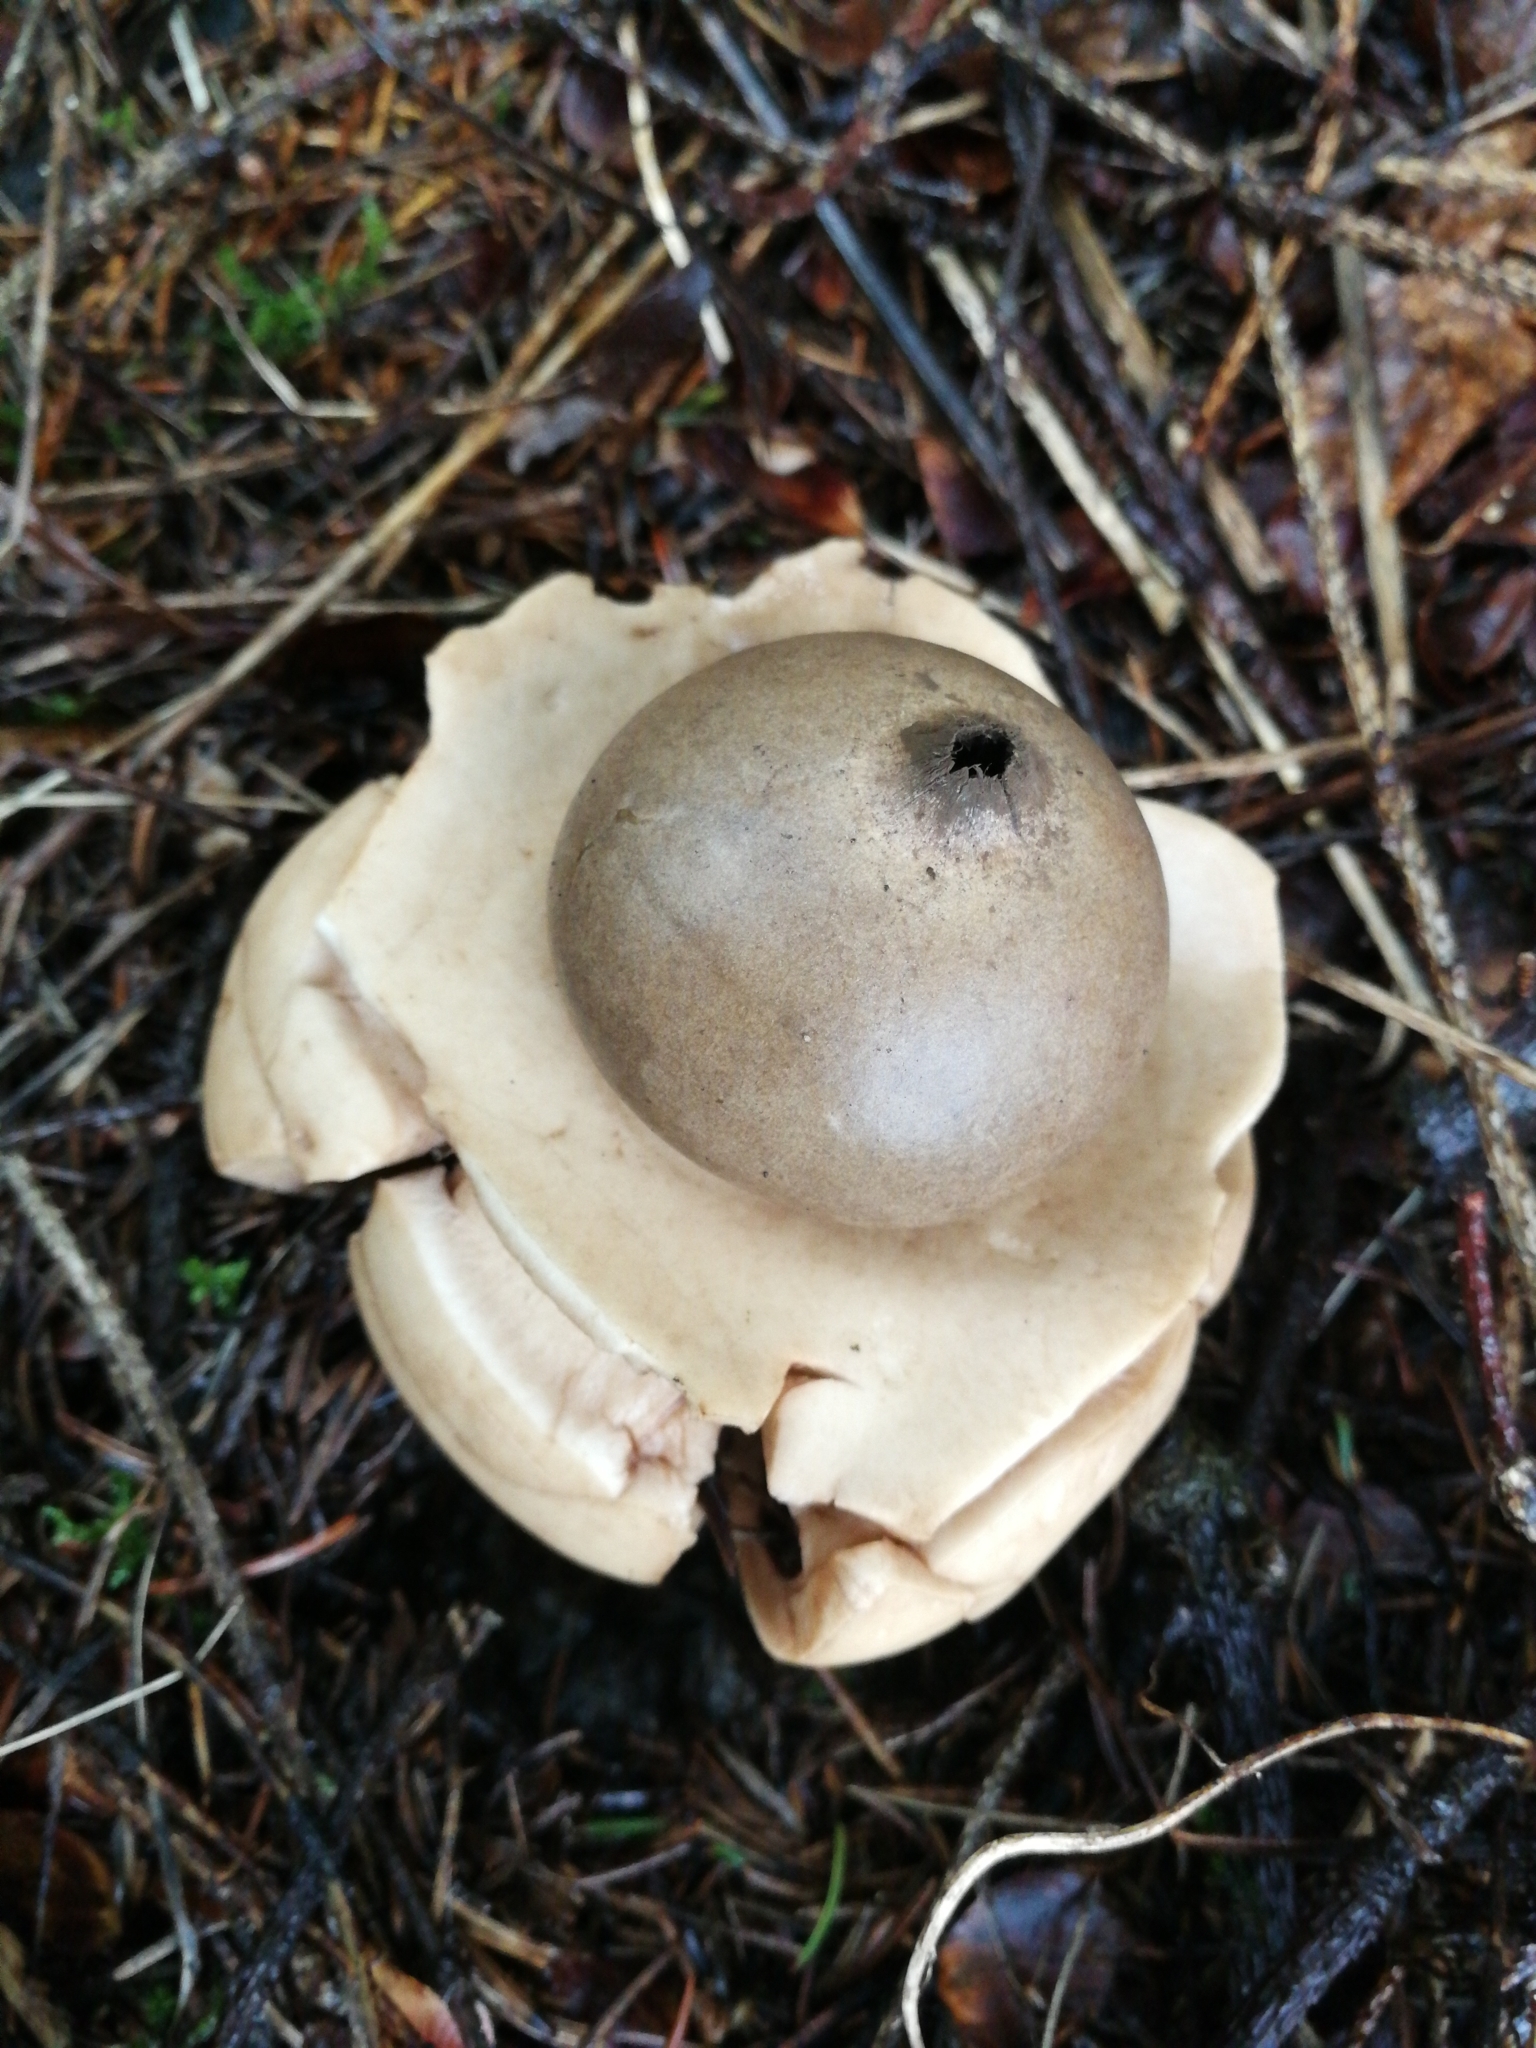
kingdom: Fungi
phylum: Basidiomycota
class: Agaricomycetes
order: Geastrales
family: Geastraceae
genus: Geastrum
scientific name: Geastrum triplex
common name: Collared earthstar
